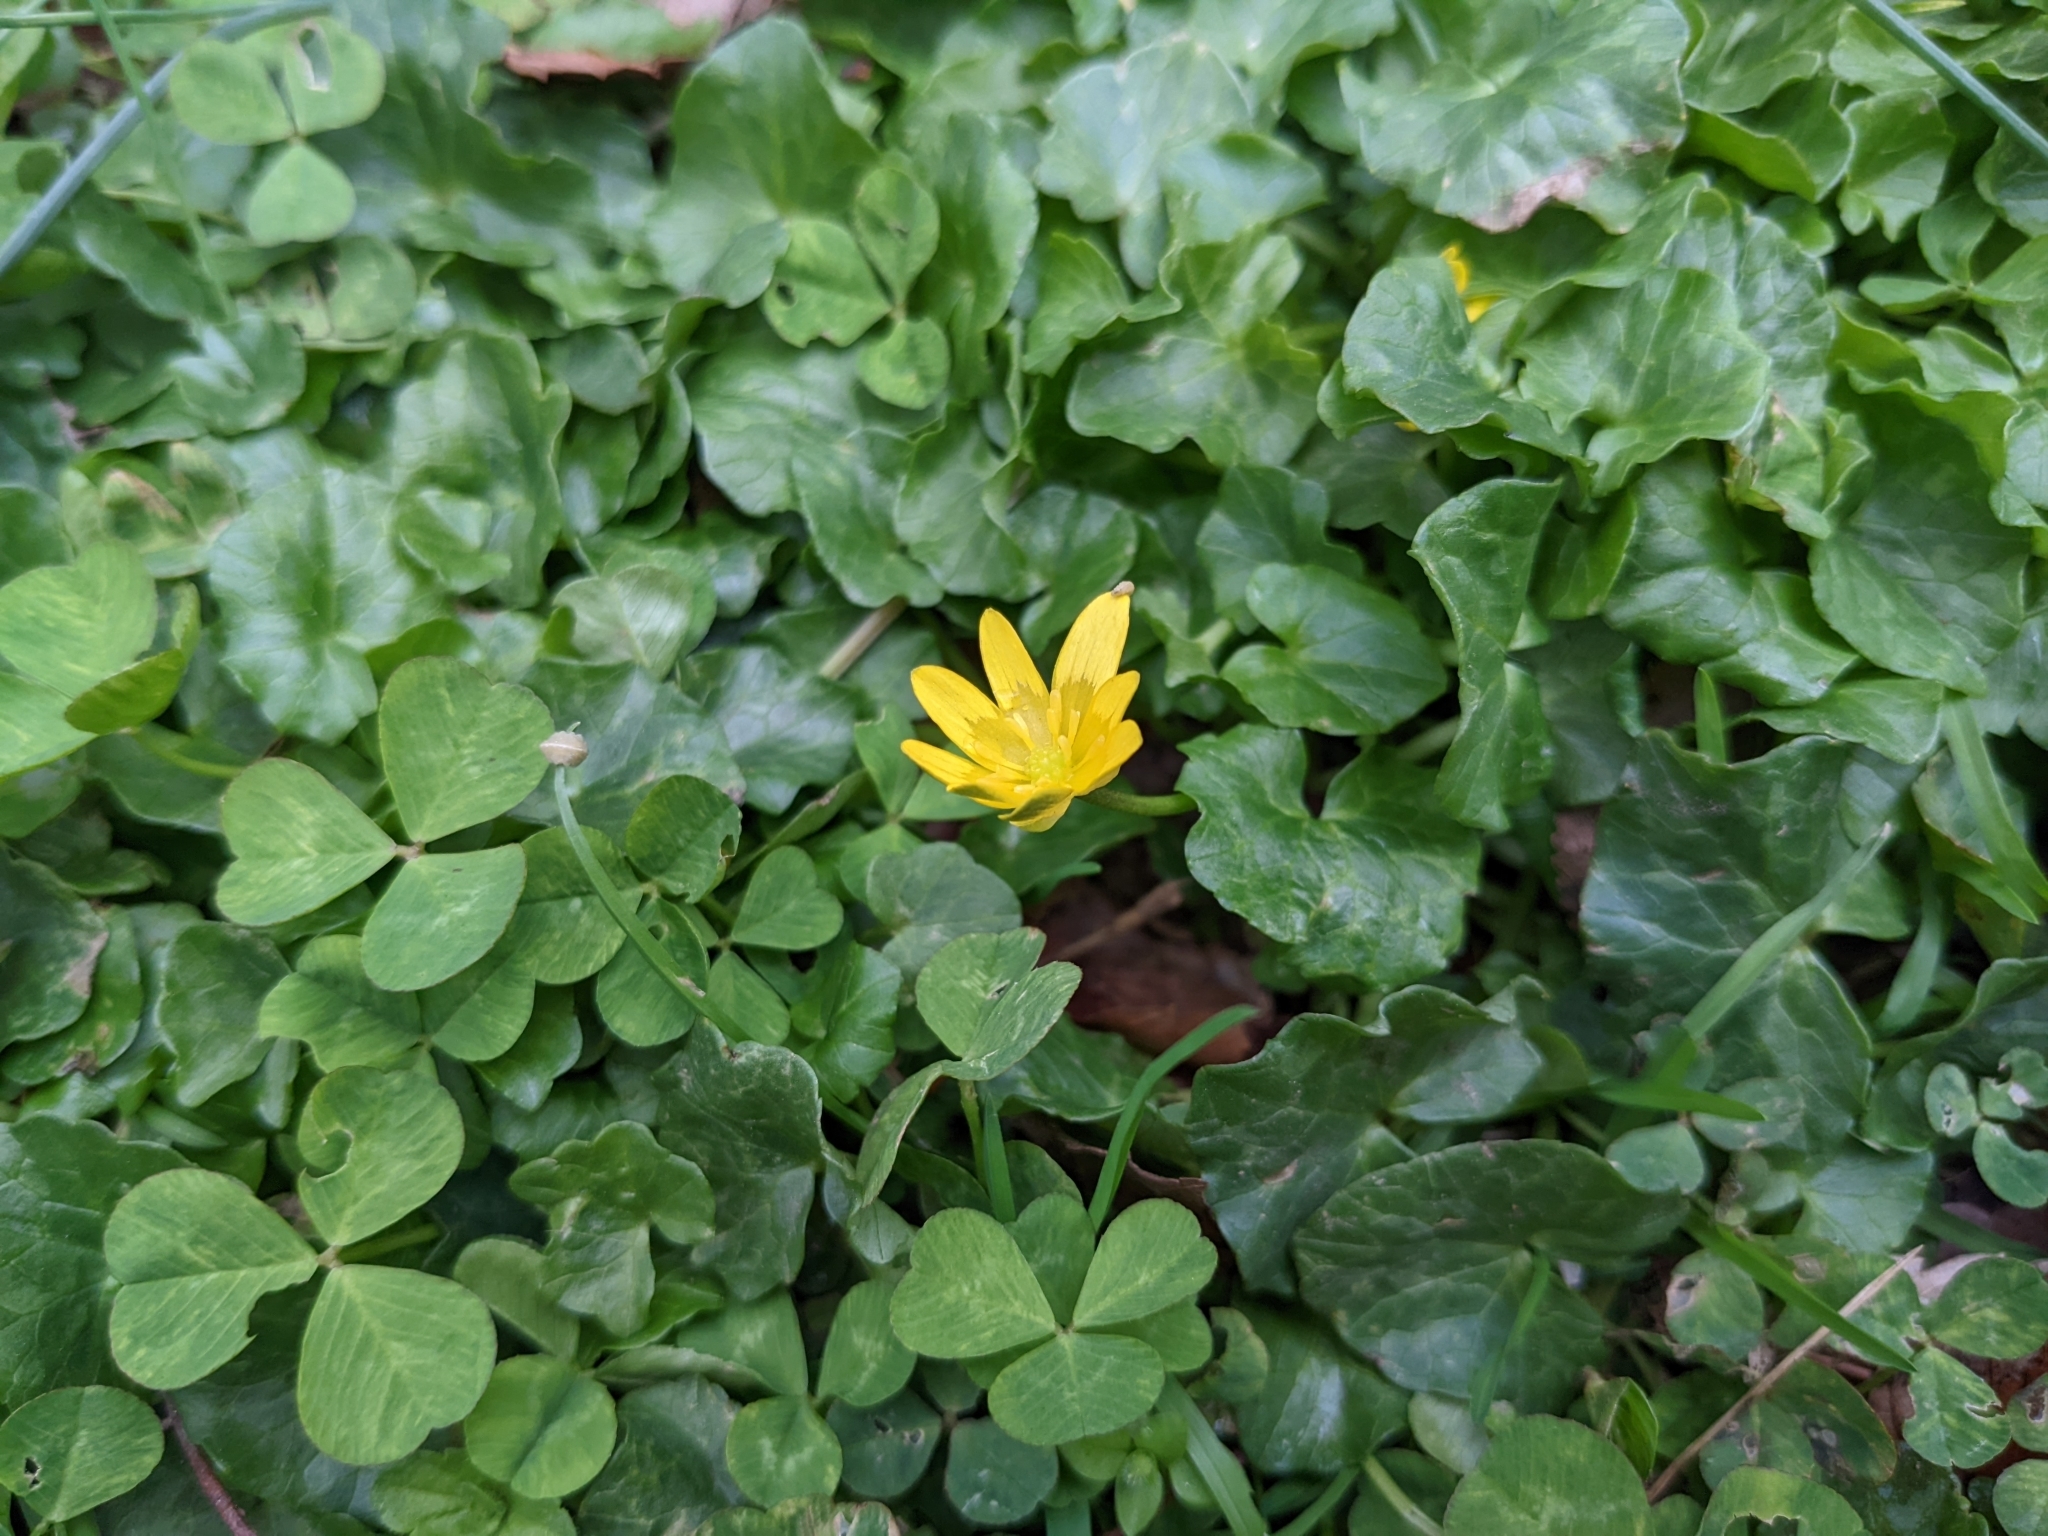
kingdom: Plantae
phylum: Tracheophyta
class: Magnoliopsida
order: Ranunculales
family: Ranunculaceae
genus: Ficaria
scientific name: Ficaria verna
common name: Lesser celandine
